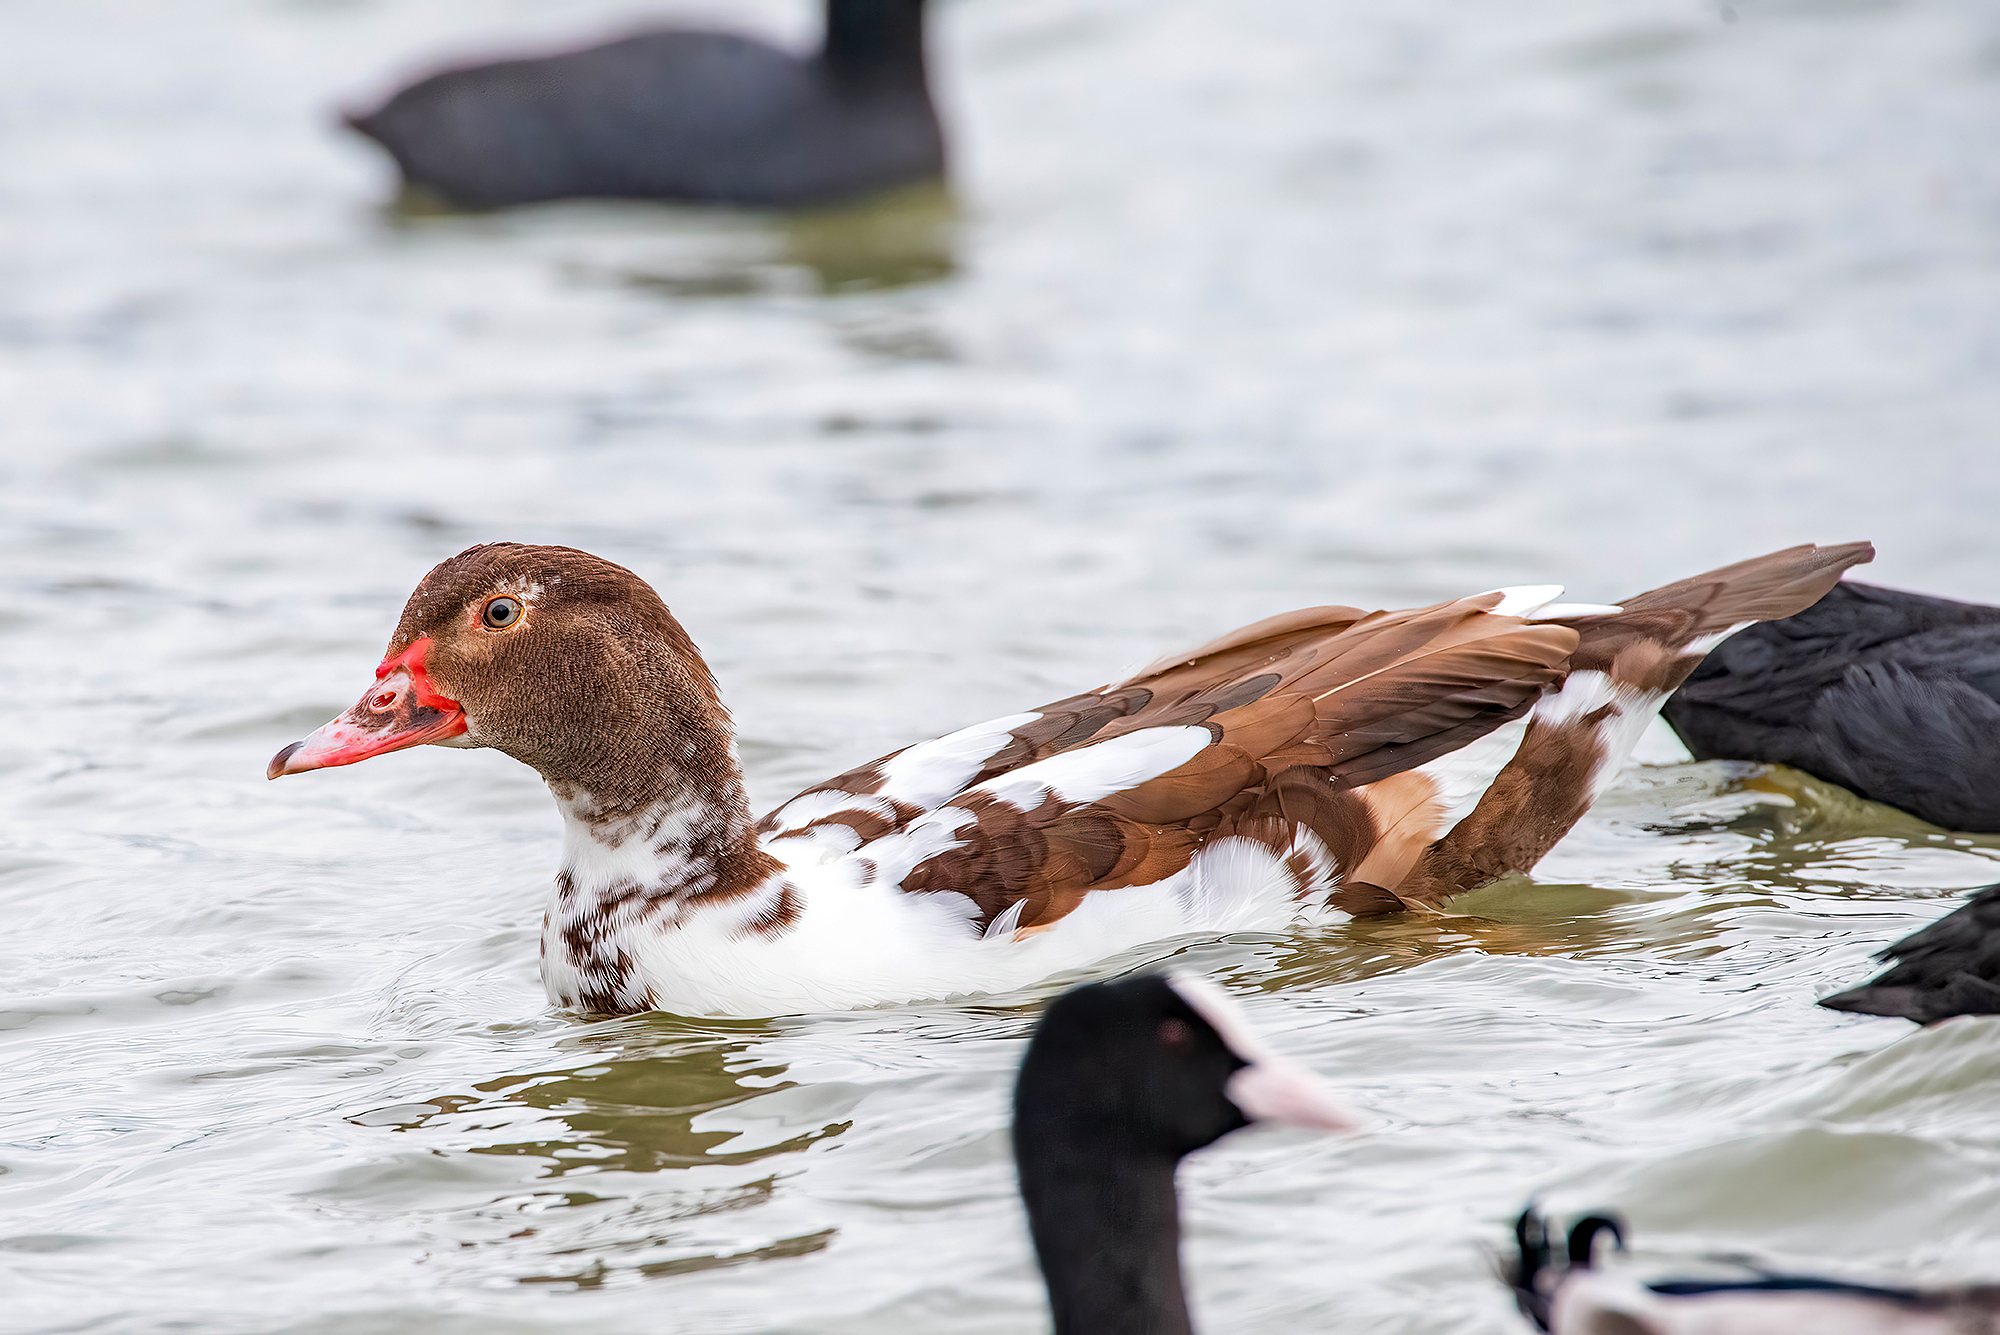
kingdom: Animalia
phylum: Chordata
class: Aves
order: Anseriformes
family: Anatidae
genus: Cairina
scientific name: Cairina moschata
